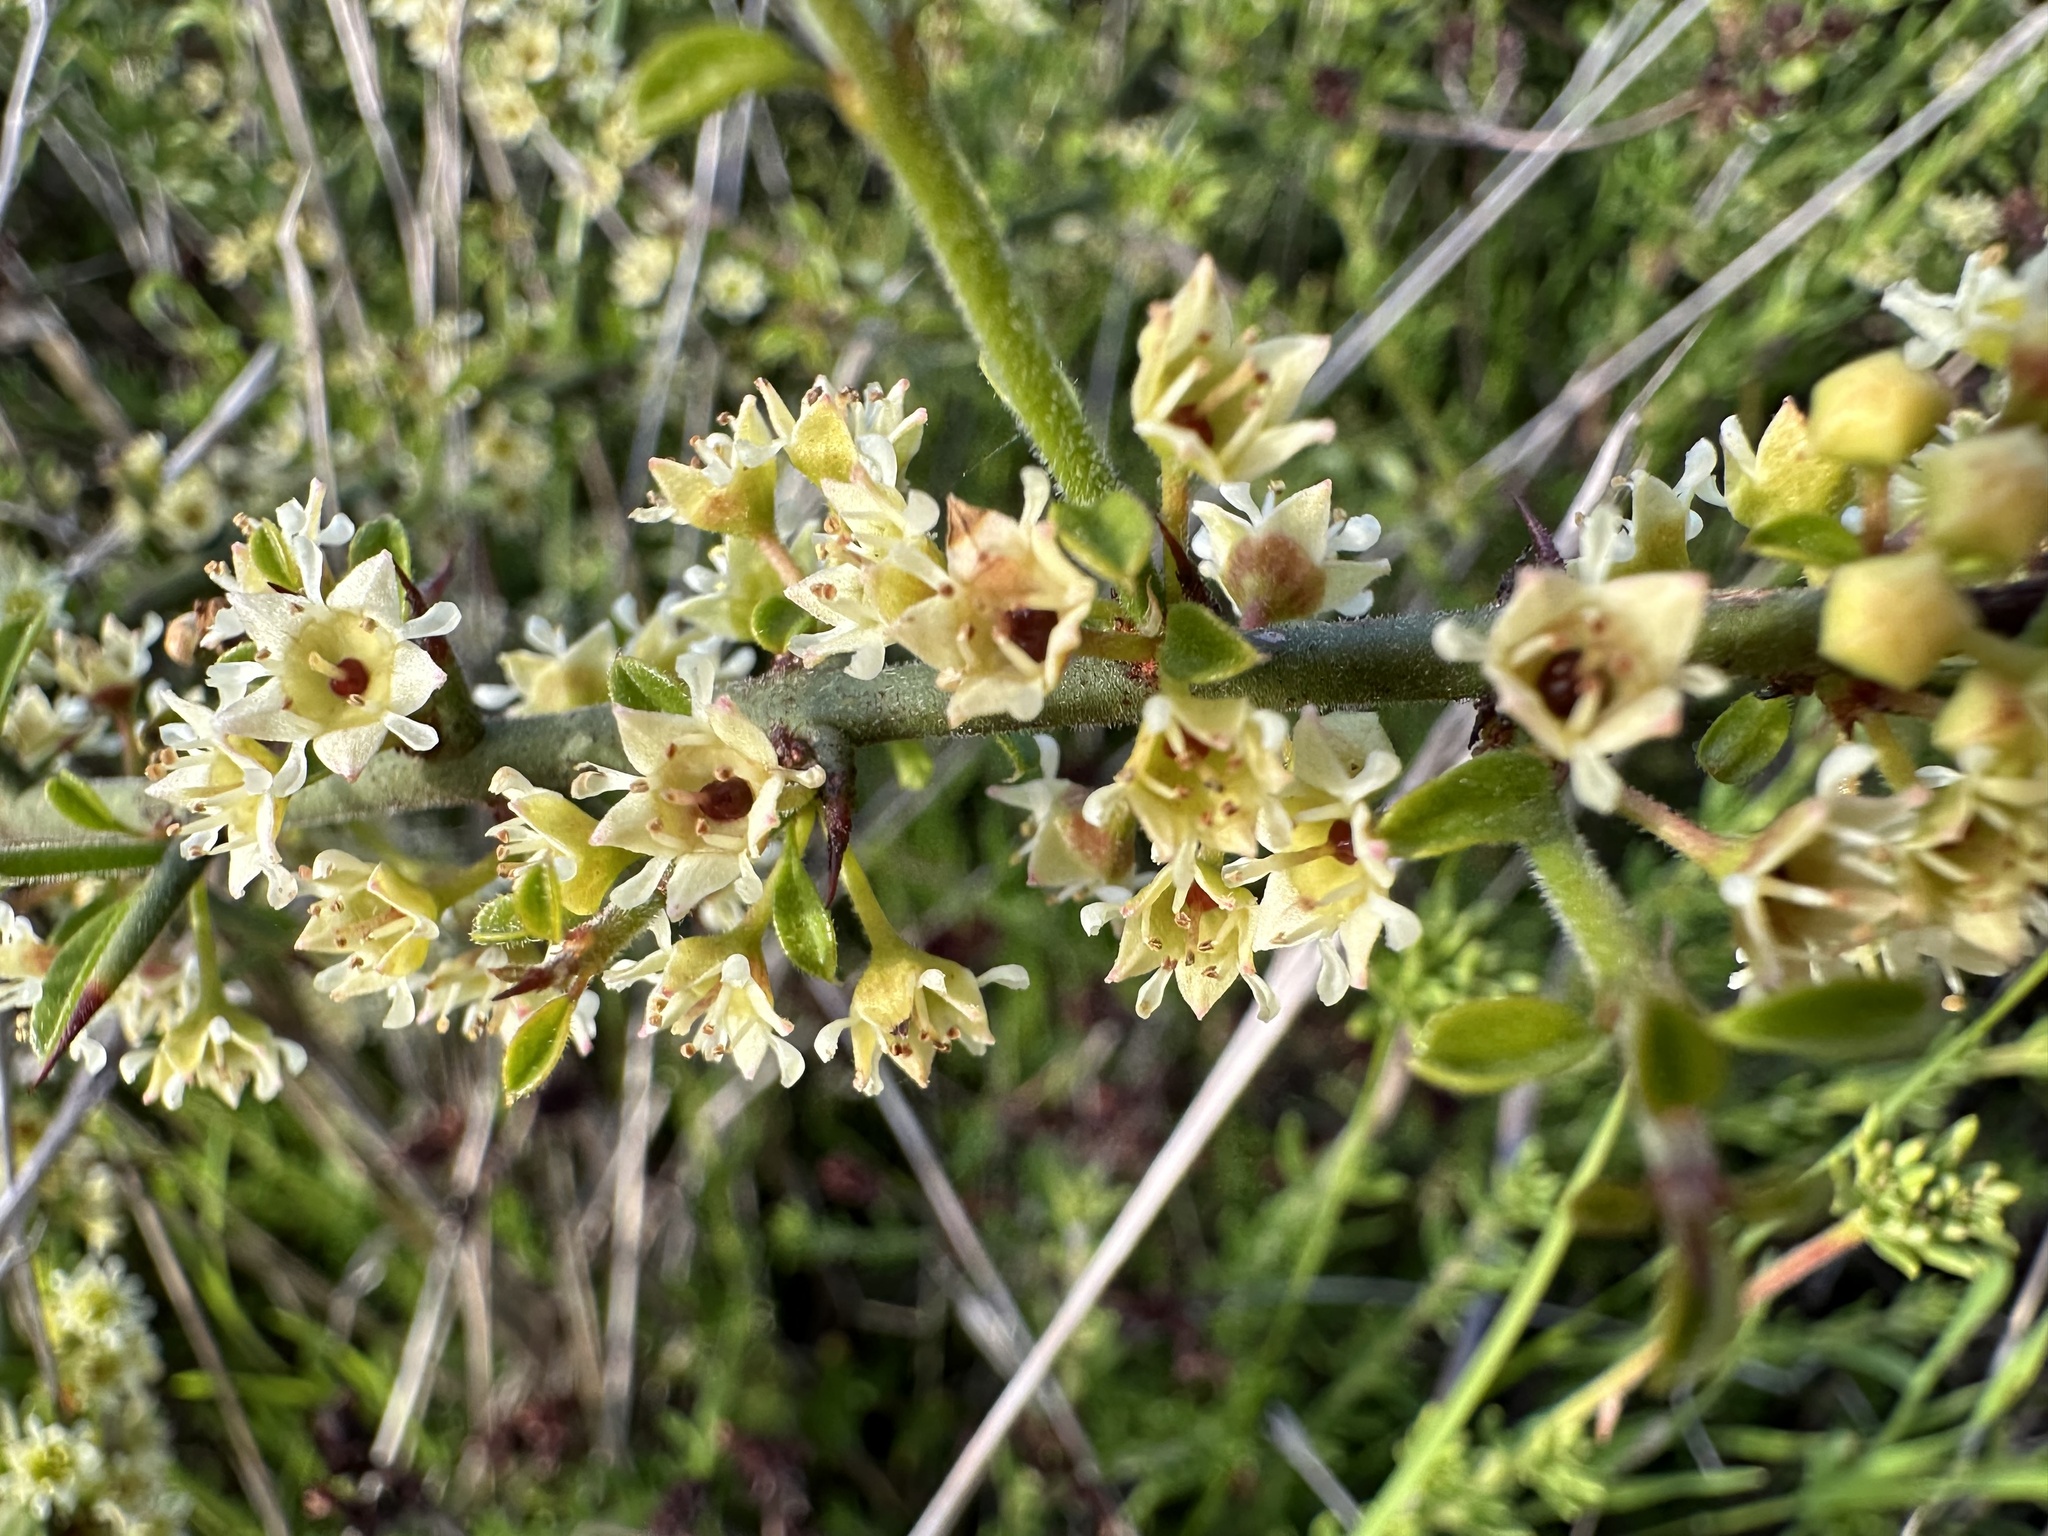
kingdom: Plantae
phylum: Tracheophyta
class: Magnoliopsida
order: Rosales
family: Rhamnaceae
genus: Adolphia
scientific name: Adolphia californica
